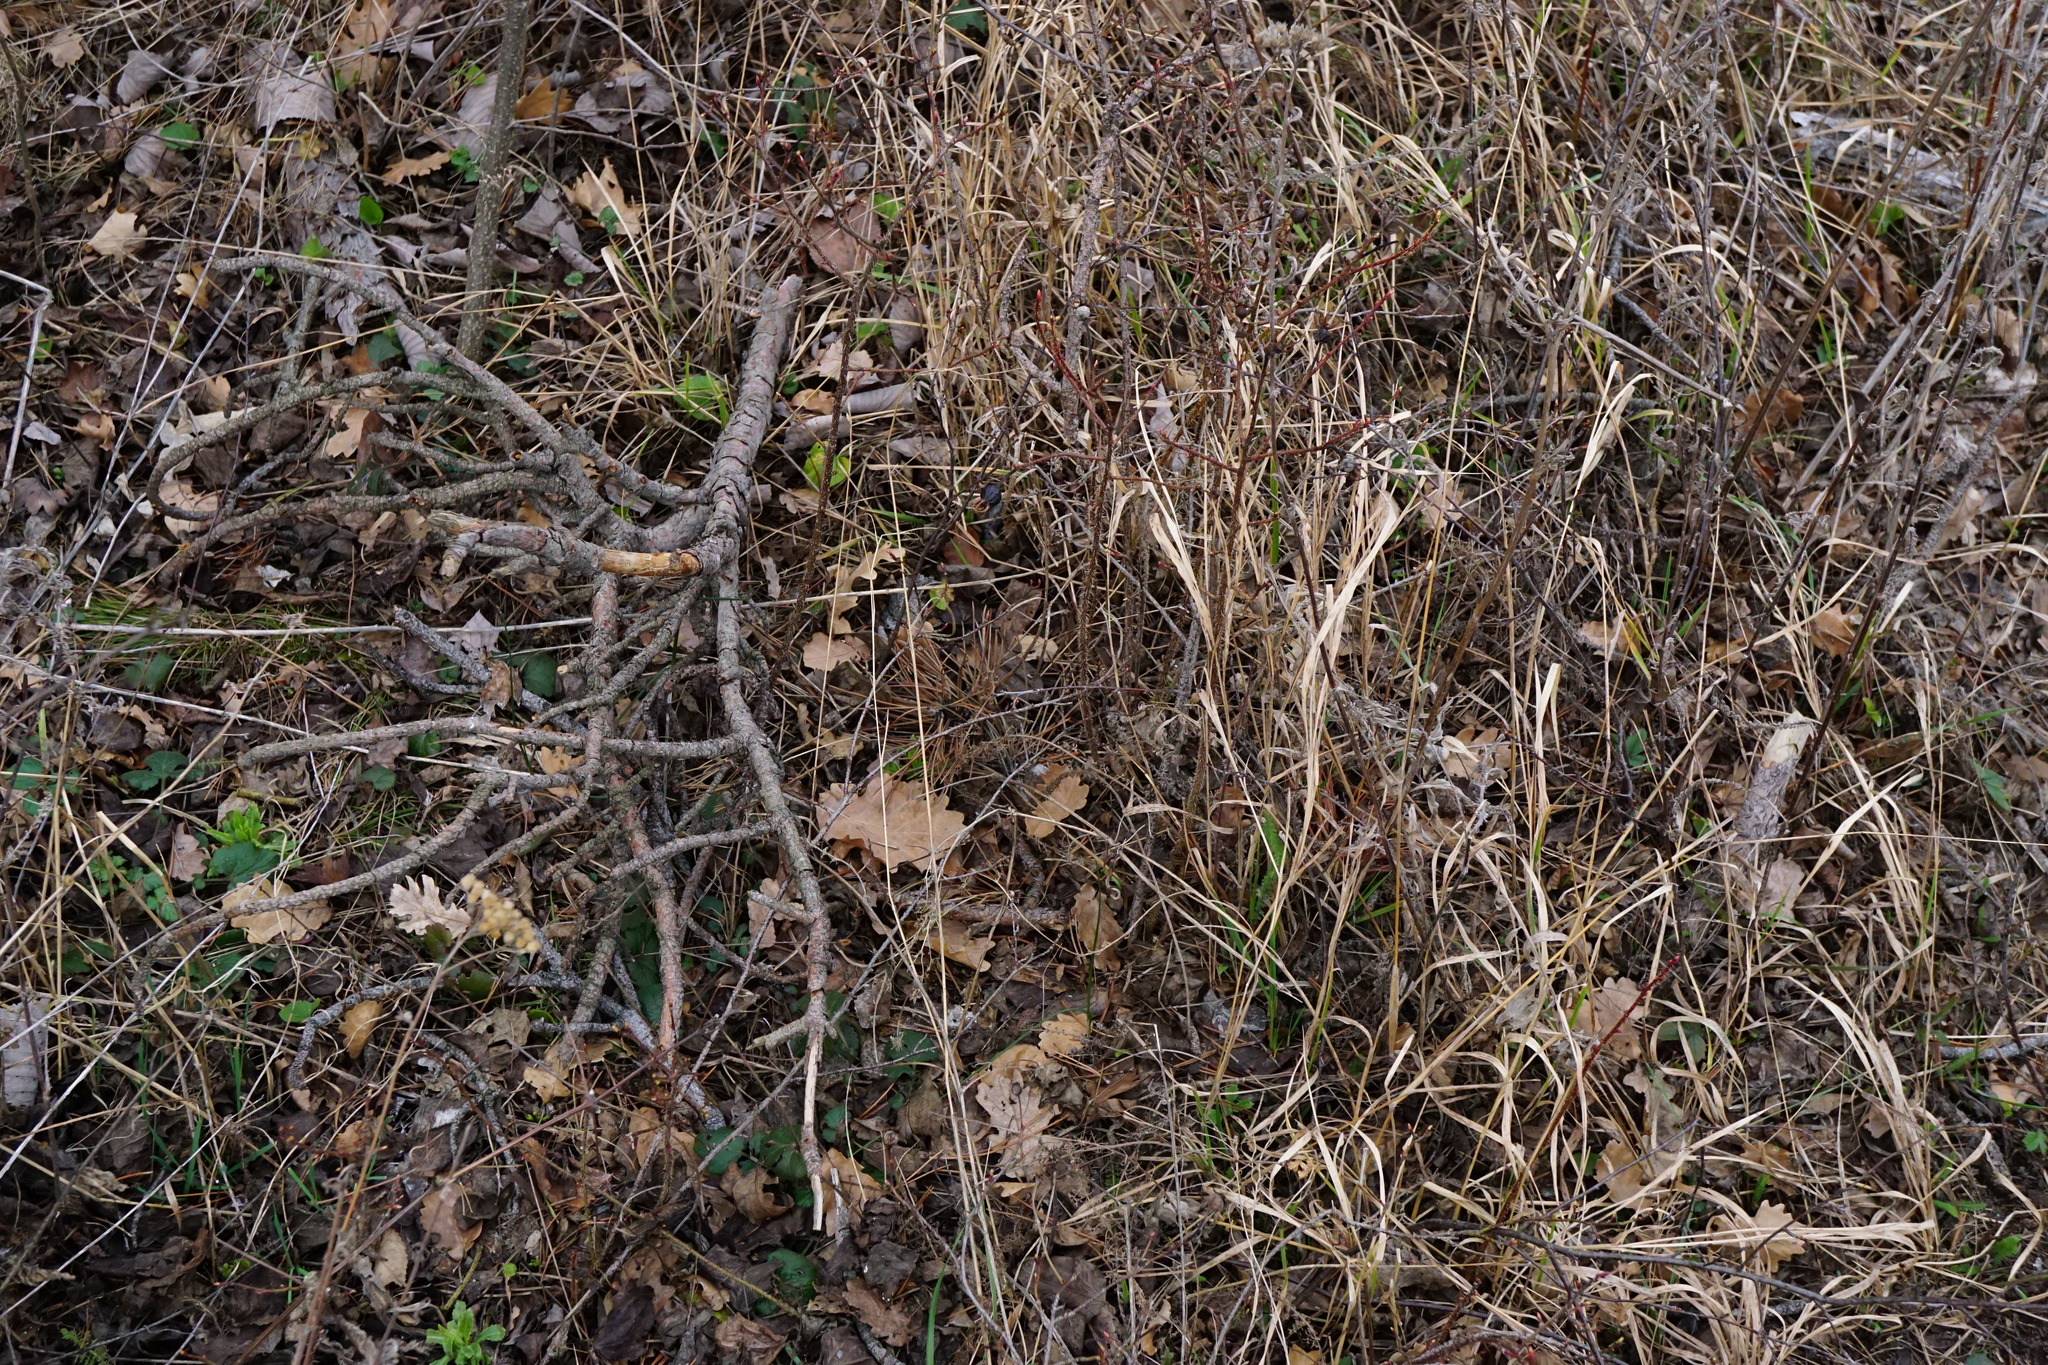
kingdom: Plantae
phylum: Tracheophyta
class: Magnoliopsida
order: Rosales
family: Rosaceae
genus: Rosa
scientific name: Rosa spinosissima
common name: Burnet rose
